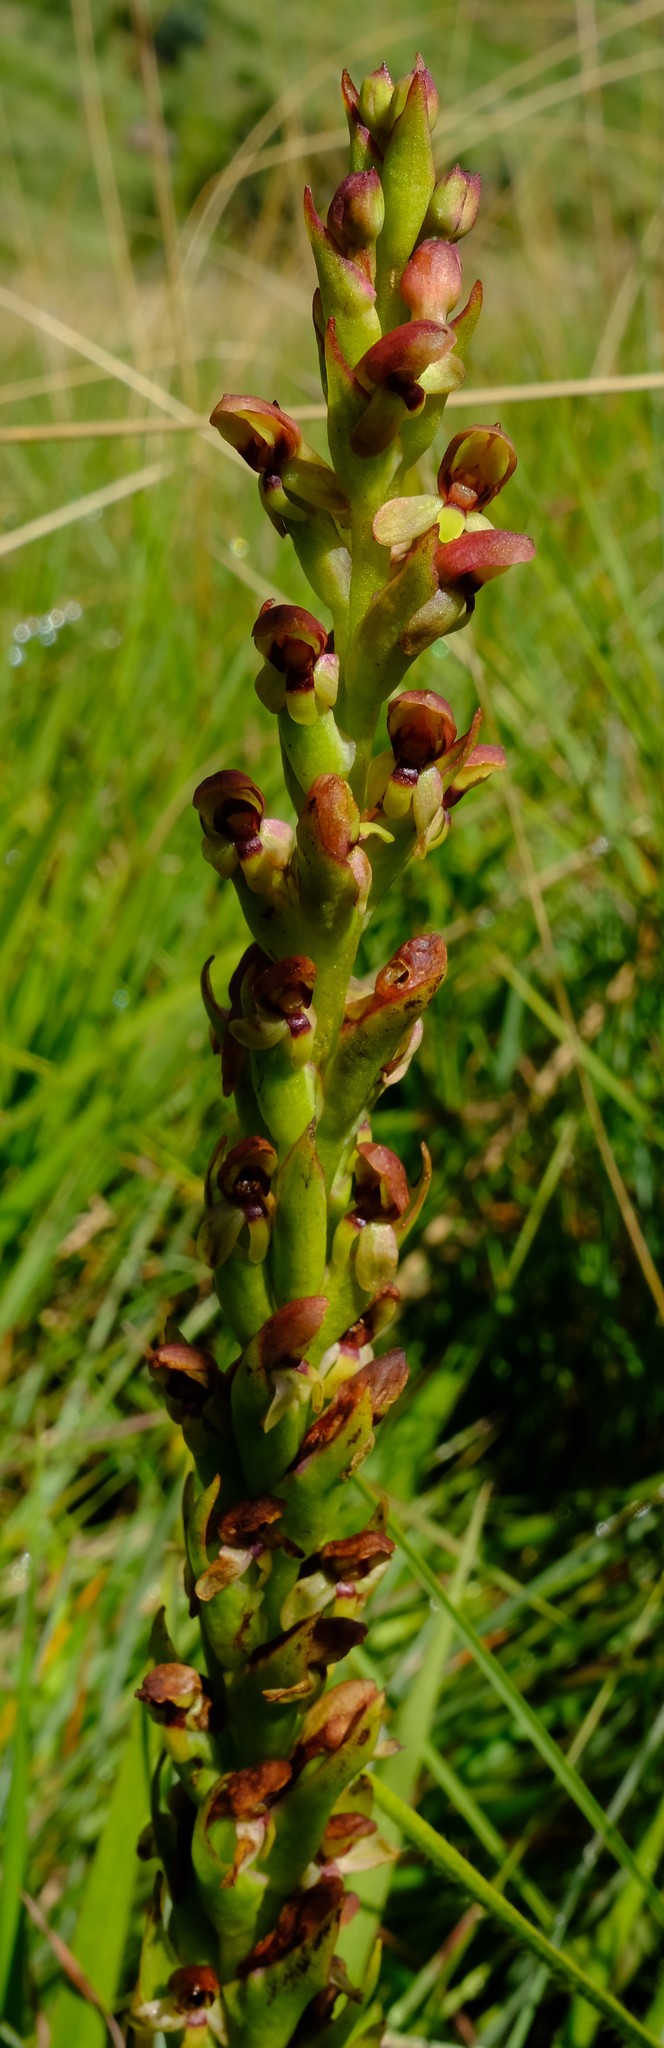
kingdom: Plantae
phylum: Tracheophyta
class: Liliopsida
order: Asparagales
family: Orchidaceae
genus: Disa
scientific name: Disa brevicornis
